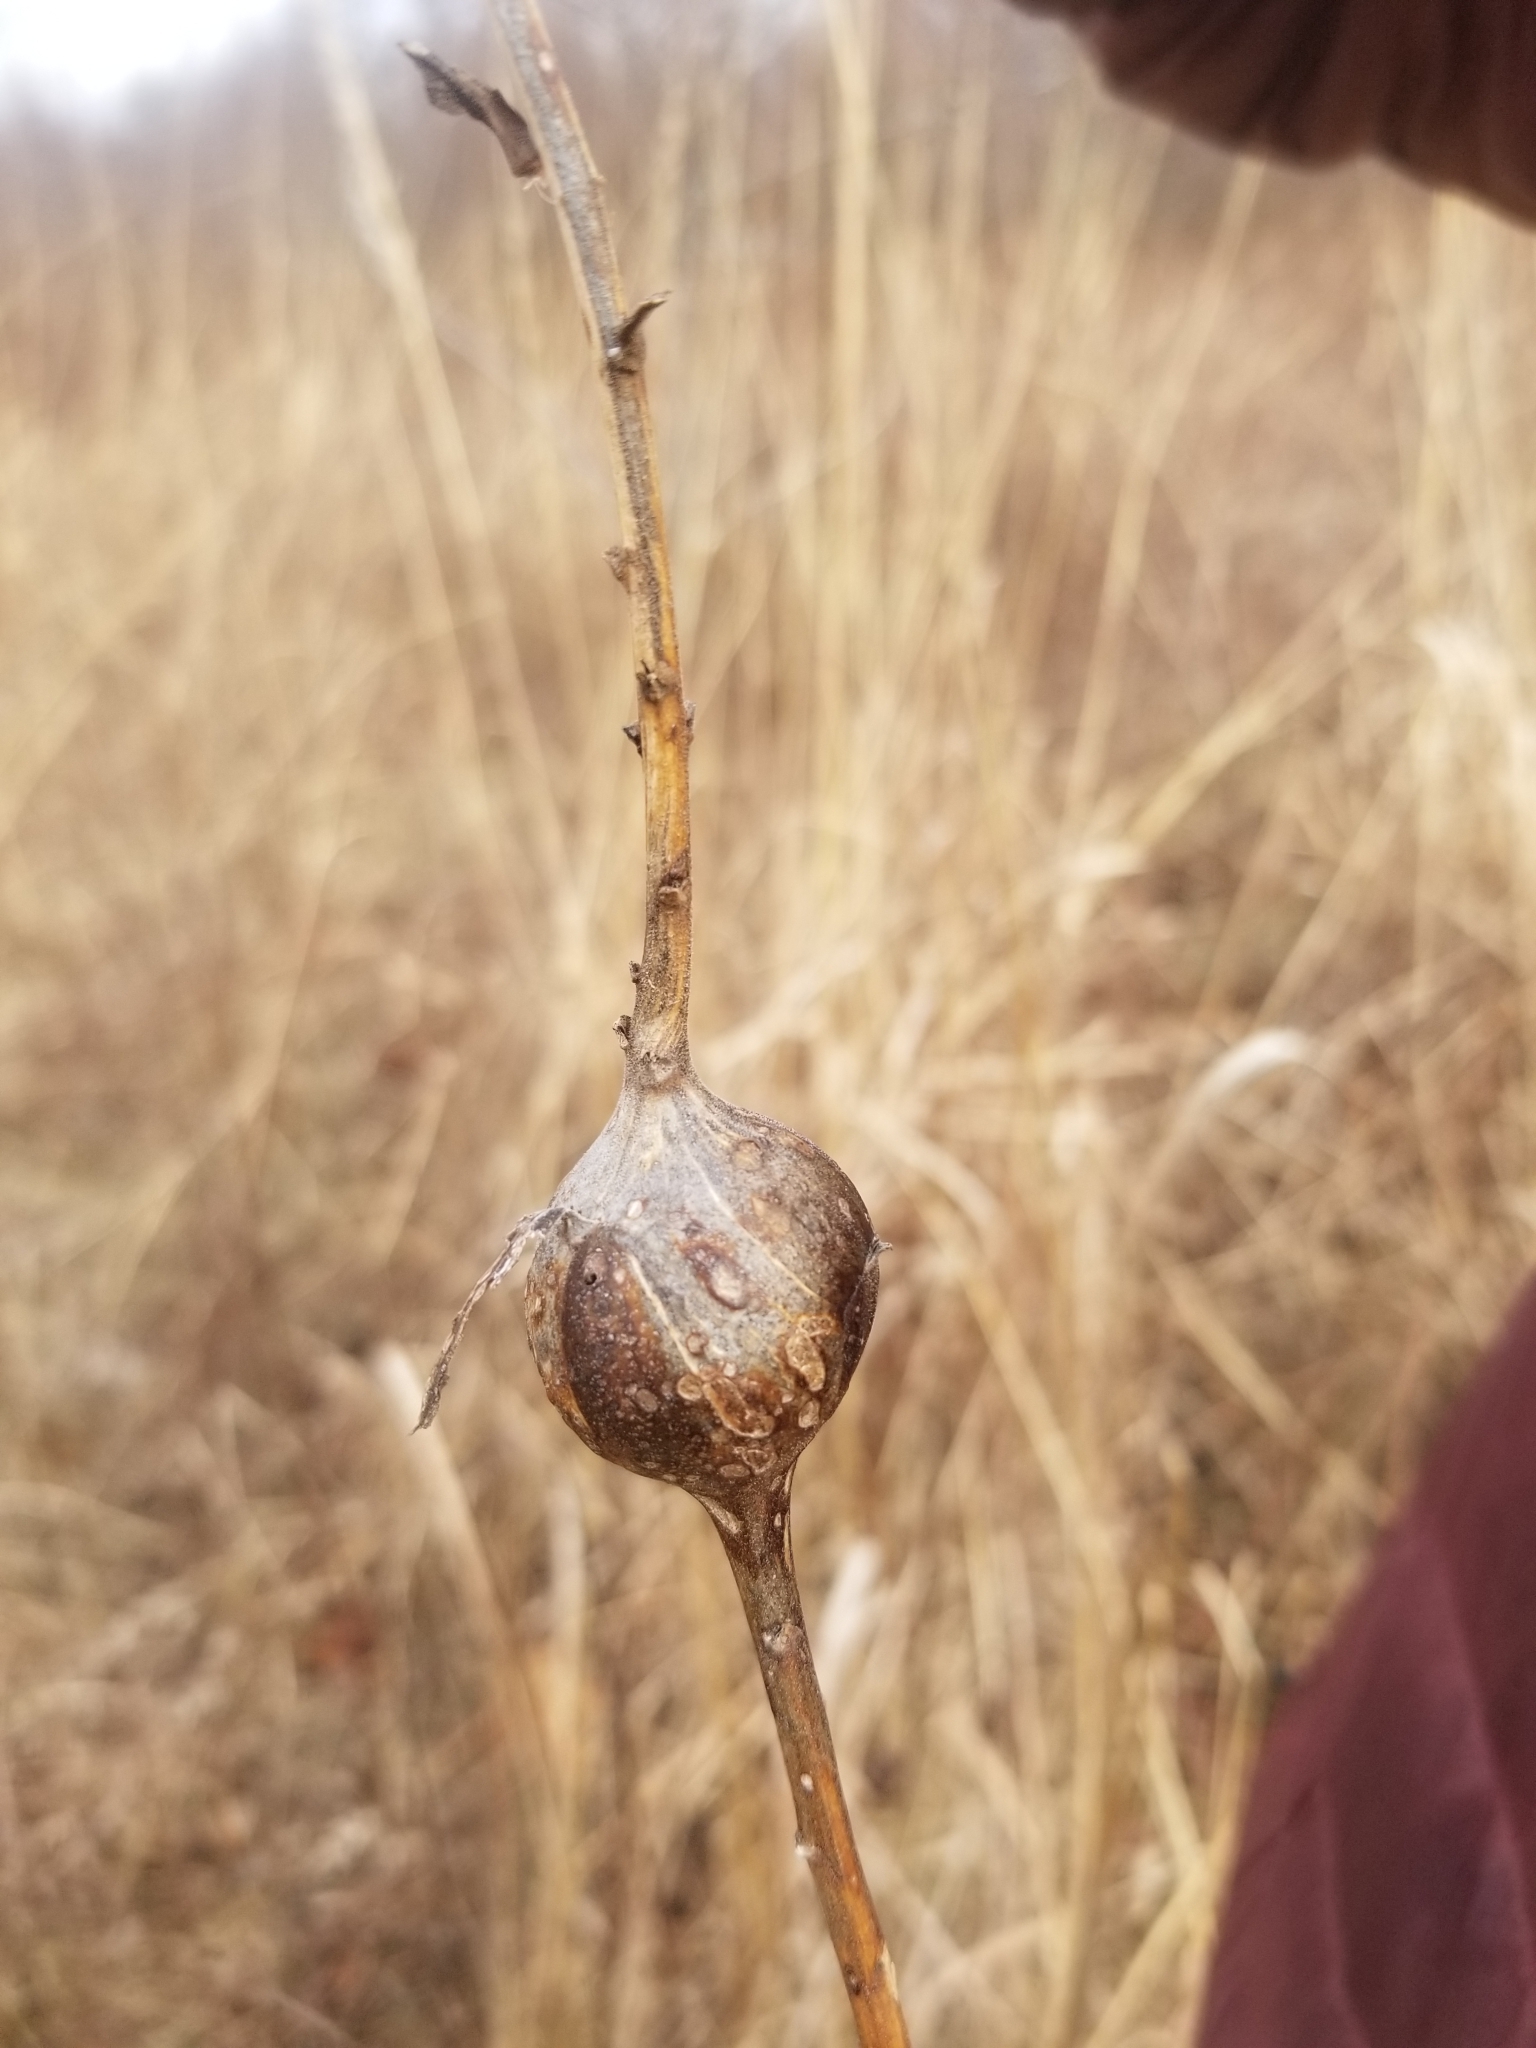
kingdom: Animalia
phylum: Arthropoda
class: Insecta
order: Diptera
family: Tephritidae
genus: Eurosta
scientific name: Eurosta solidaginis
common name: Goldenrod gall fly
